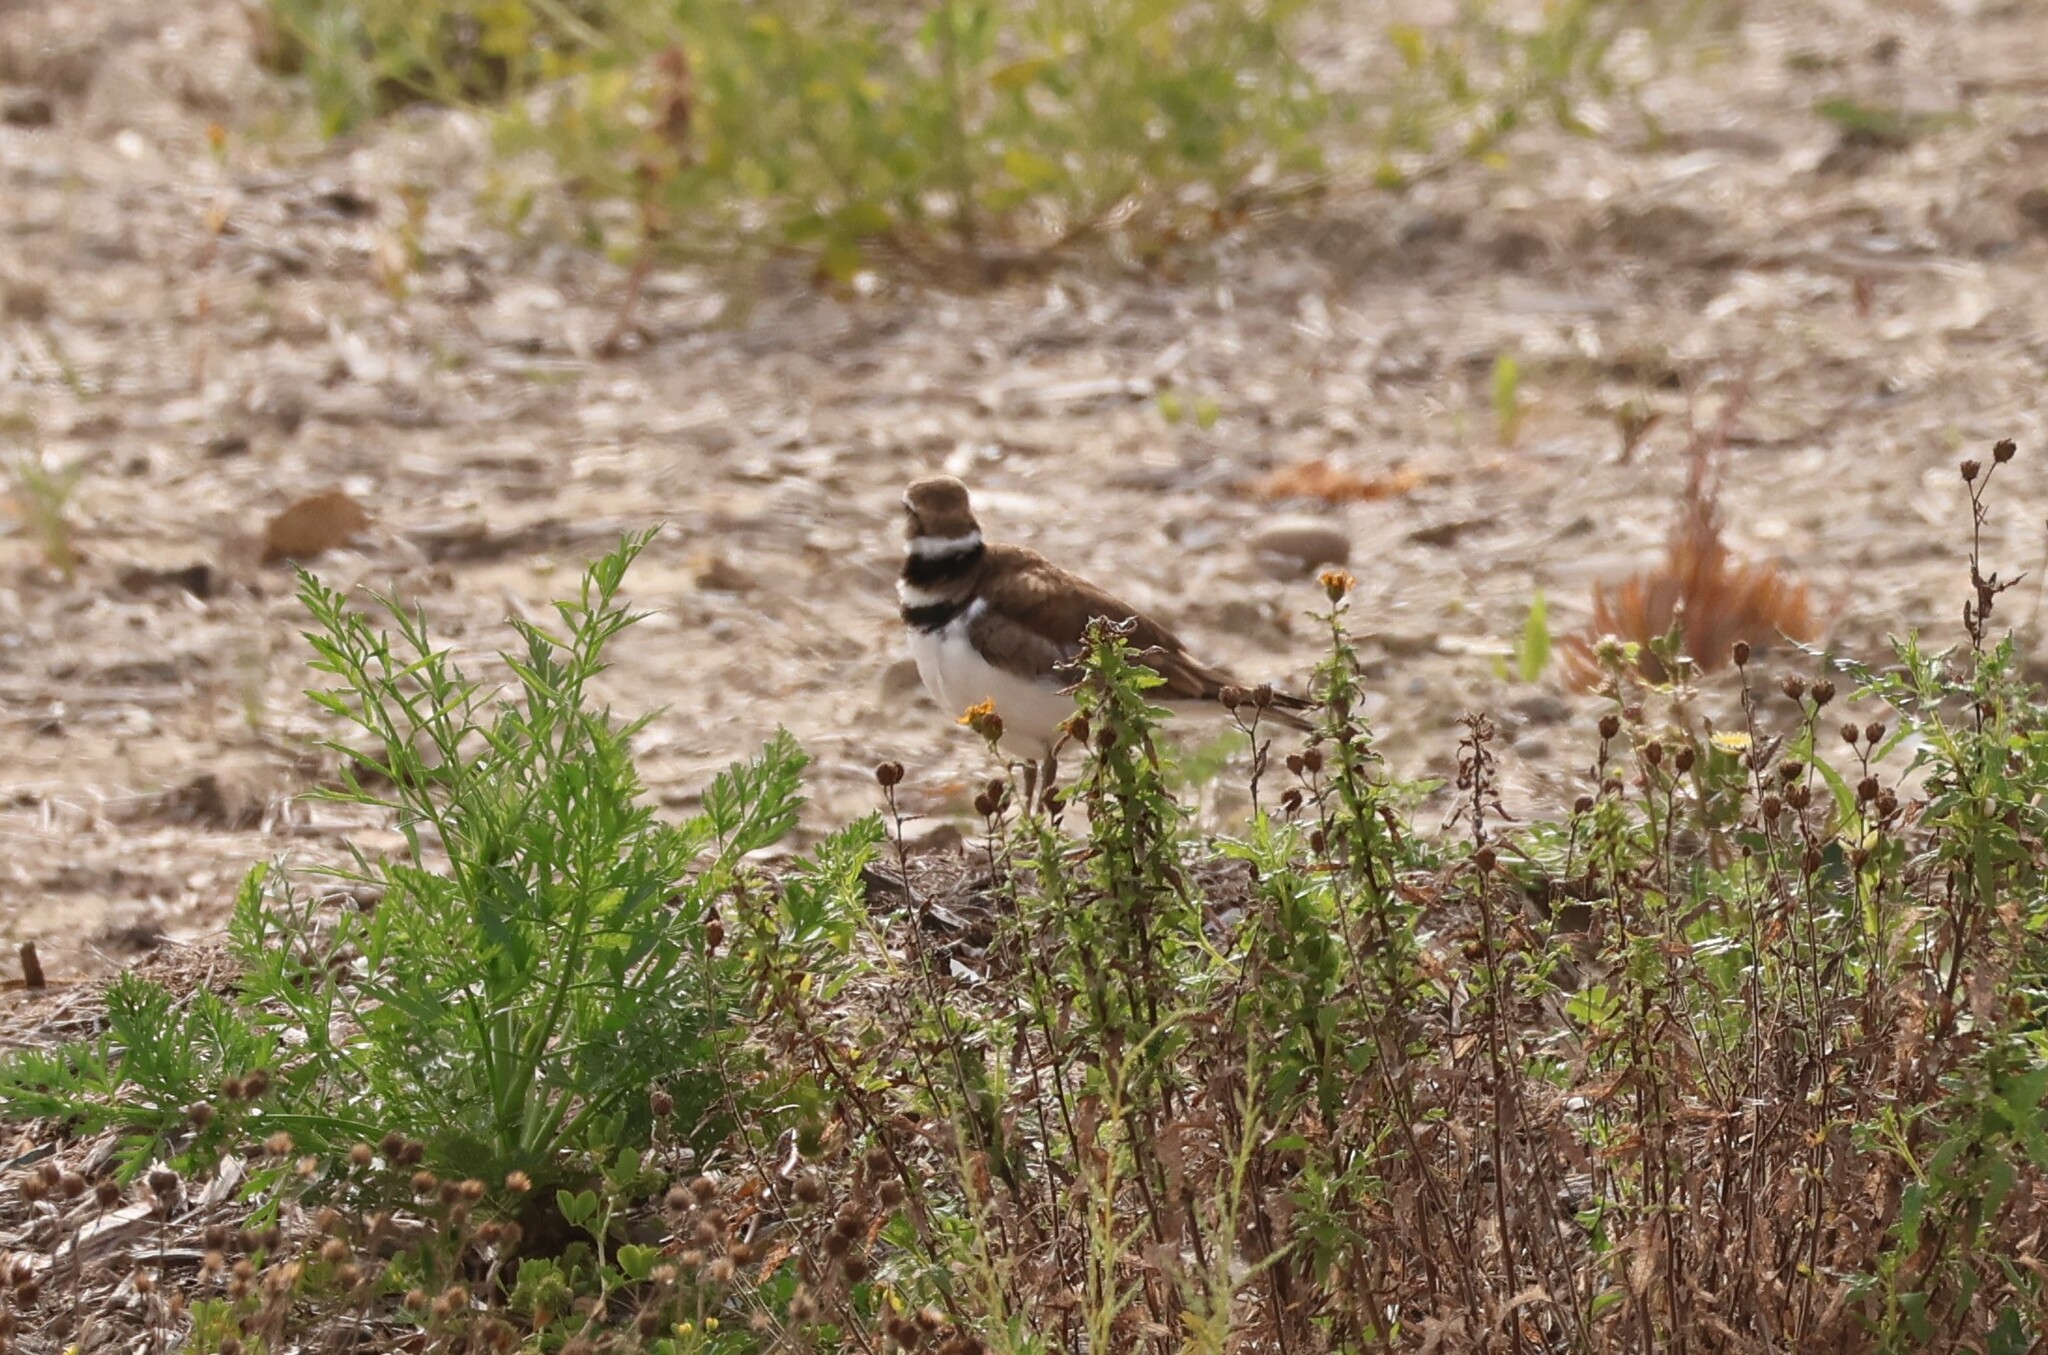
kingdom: Animalia
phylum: Chordata
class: Aves
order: Charadriiformes
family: Charadriidae
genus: Charadrius
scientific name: Charadrius vociferus
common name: Killdeer
